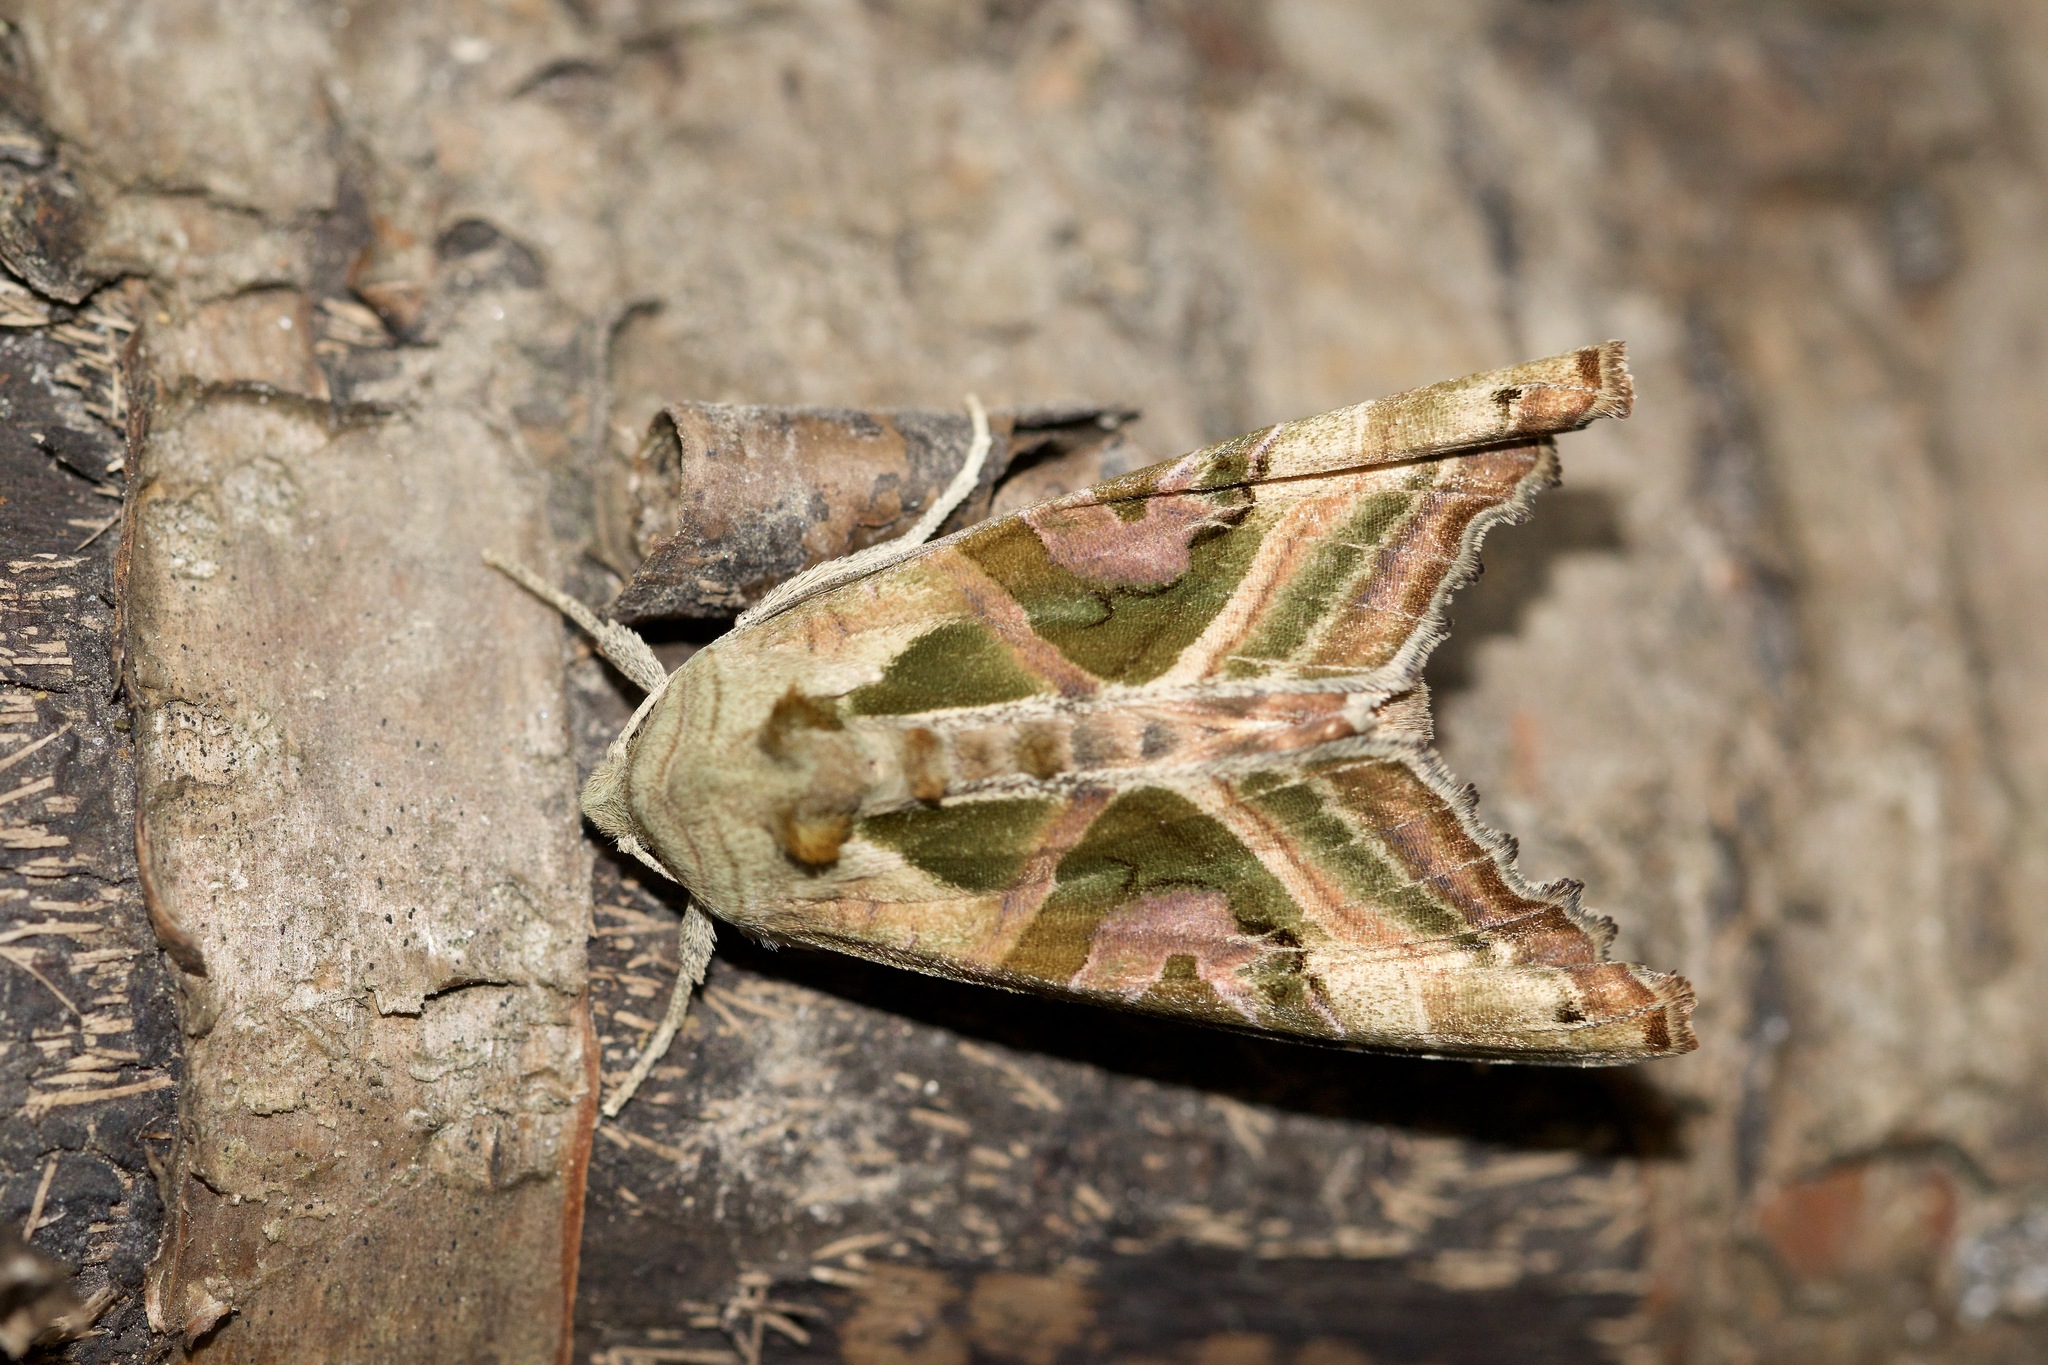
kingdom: Animalia
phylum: Arthropoda
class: Insecta
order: Lepidoptera
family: Noctuidae
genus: Phlogophora
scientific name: Phlogophora iris
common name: Olive angle shades
